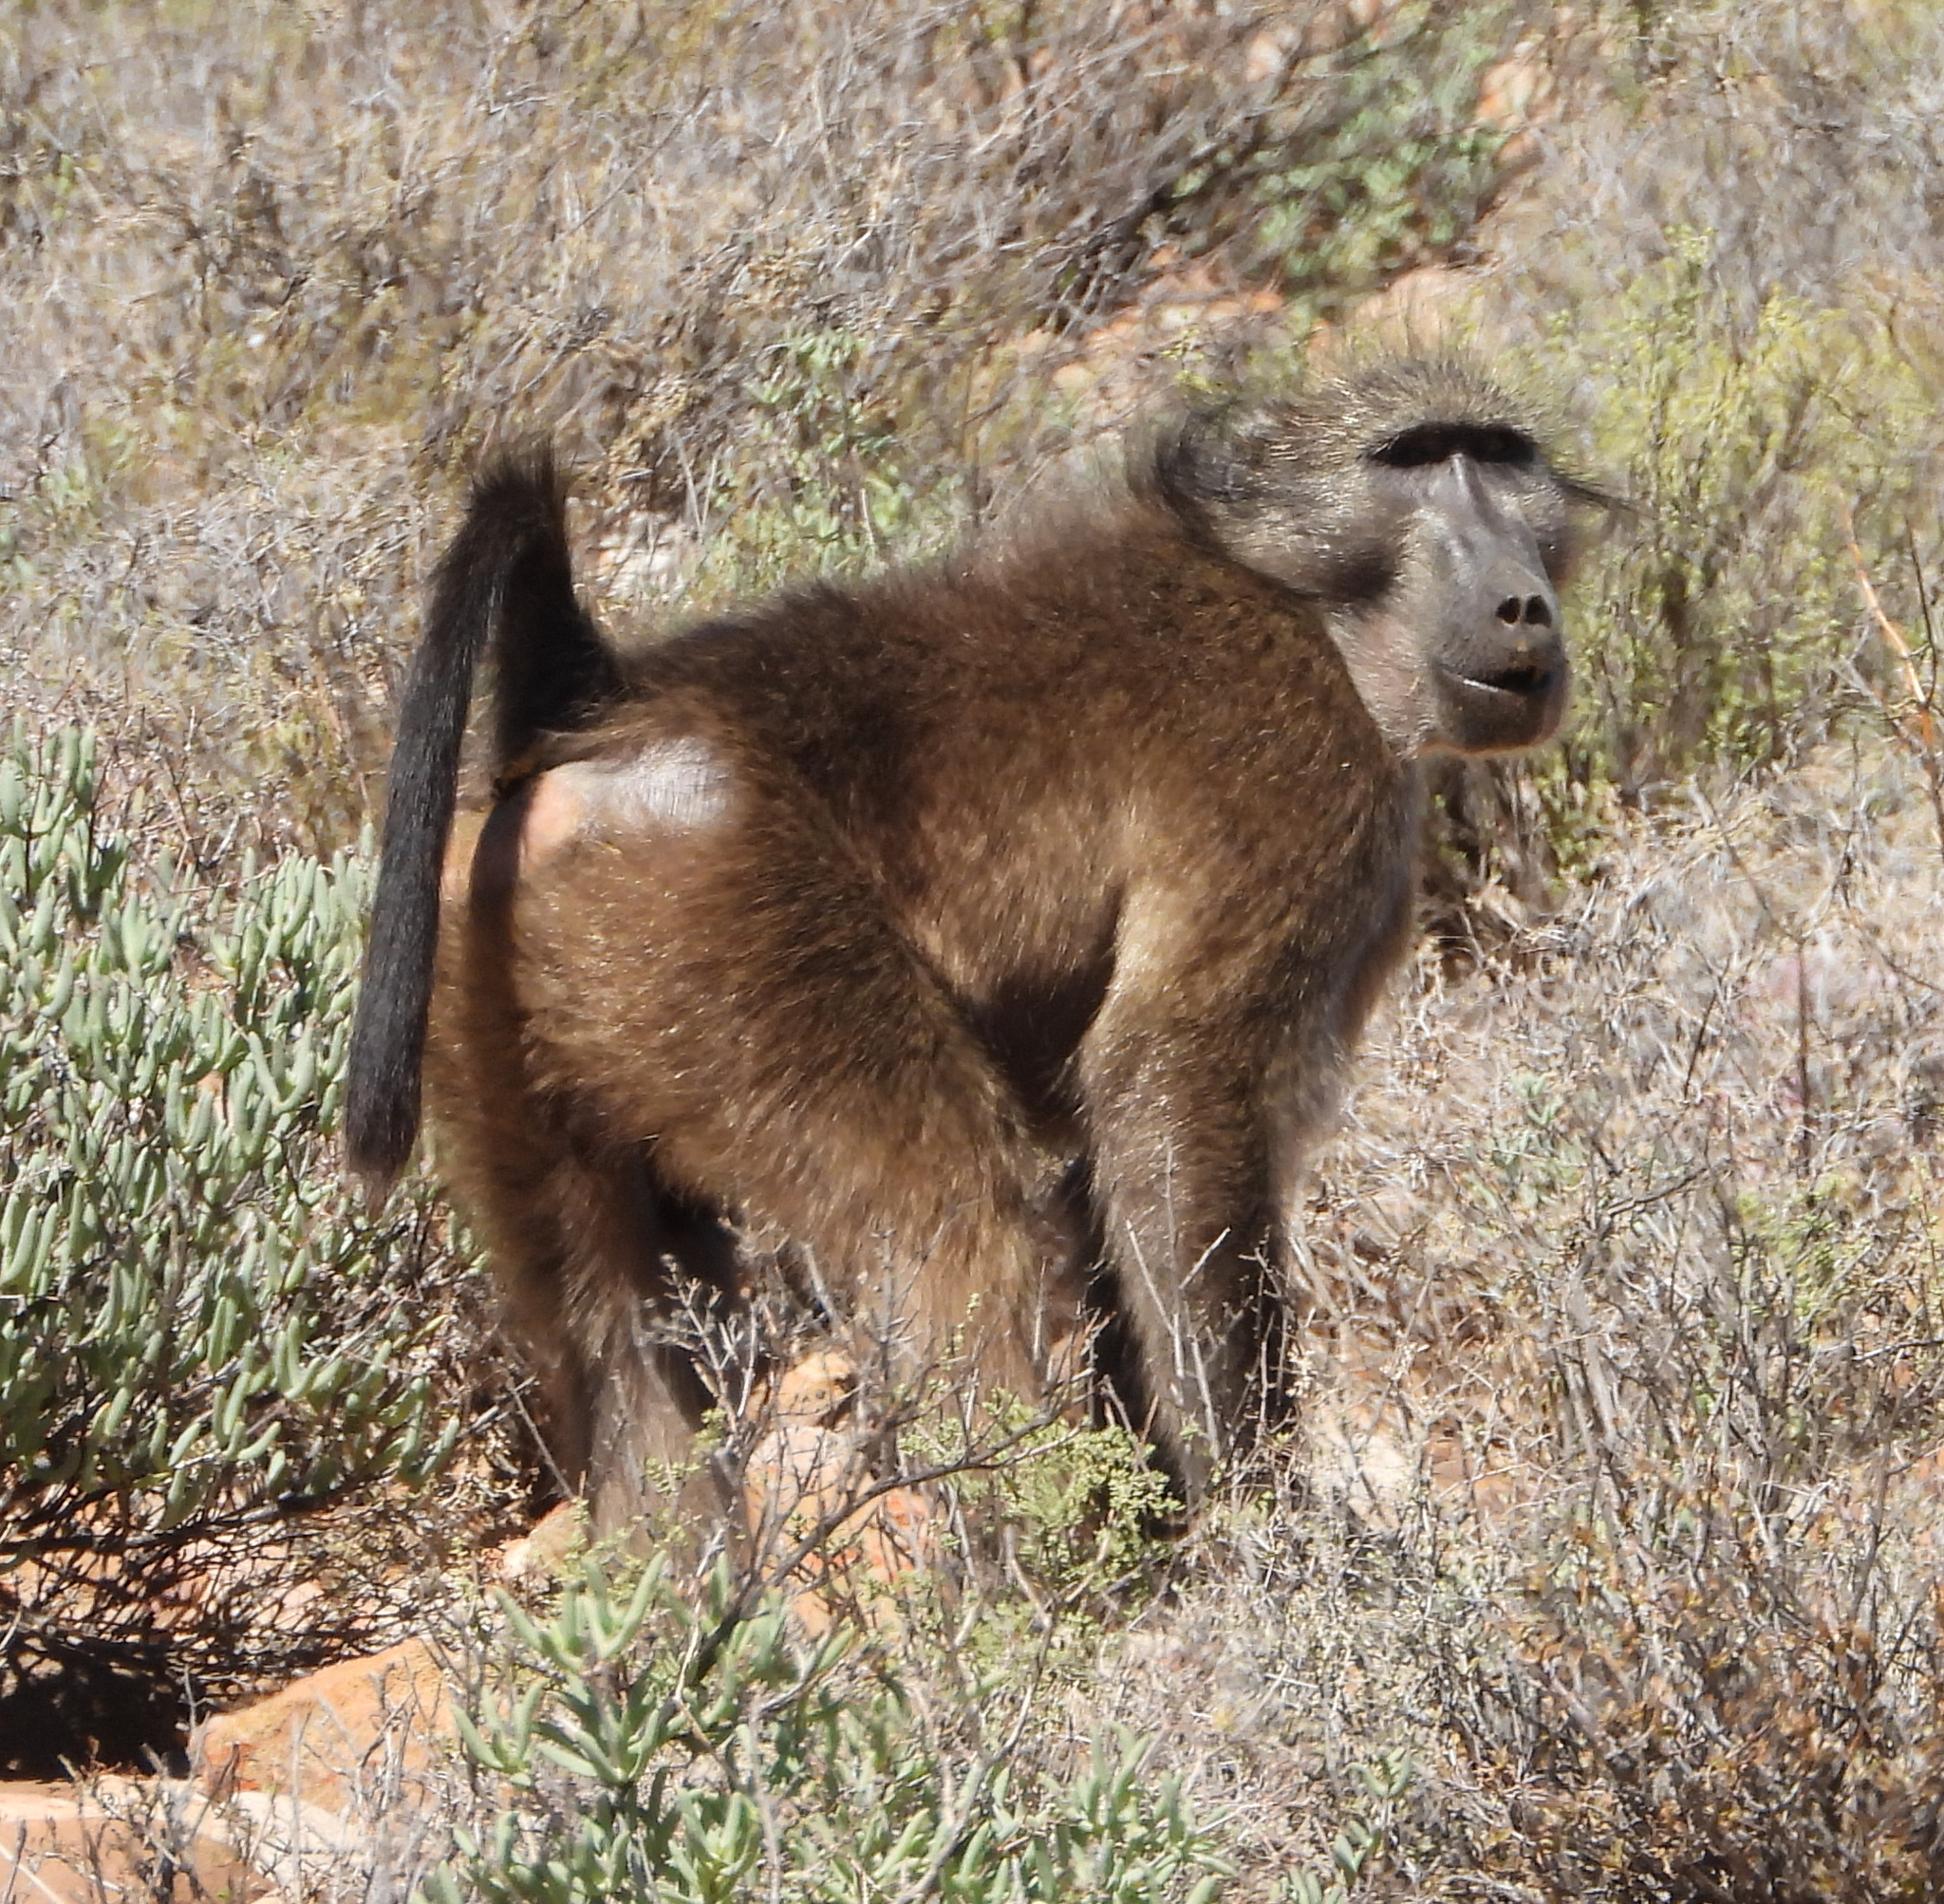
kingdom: Animalia
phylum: Chordata
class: Mammalia
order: Primates
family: Cercopithecidae
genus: Papio
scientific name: Papio ursinus
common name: Chacma baboon
